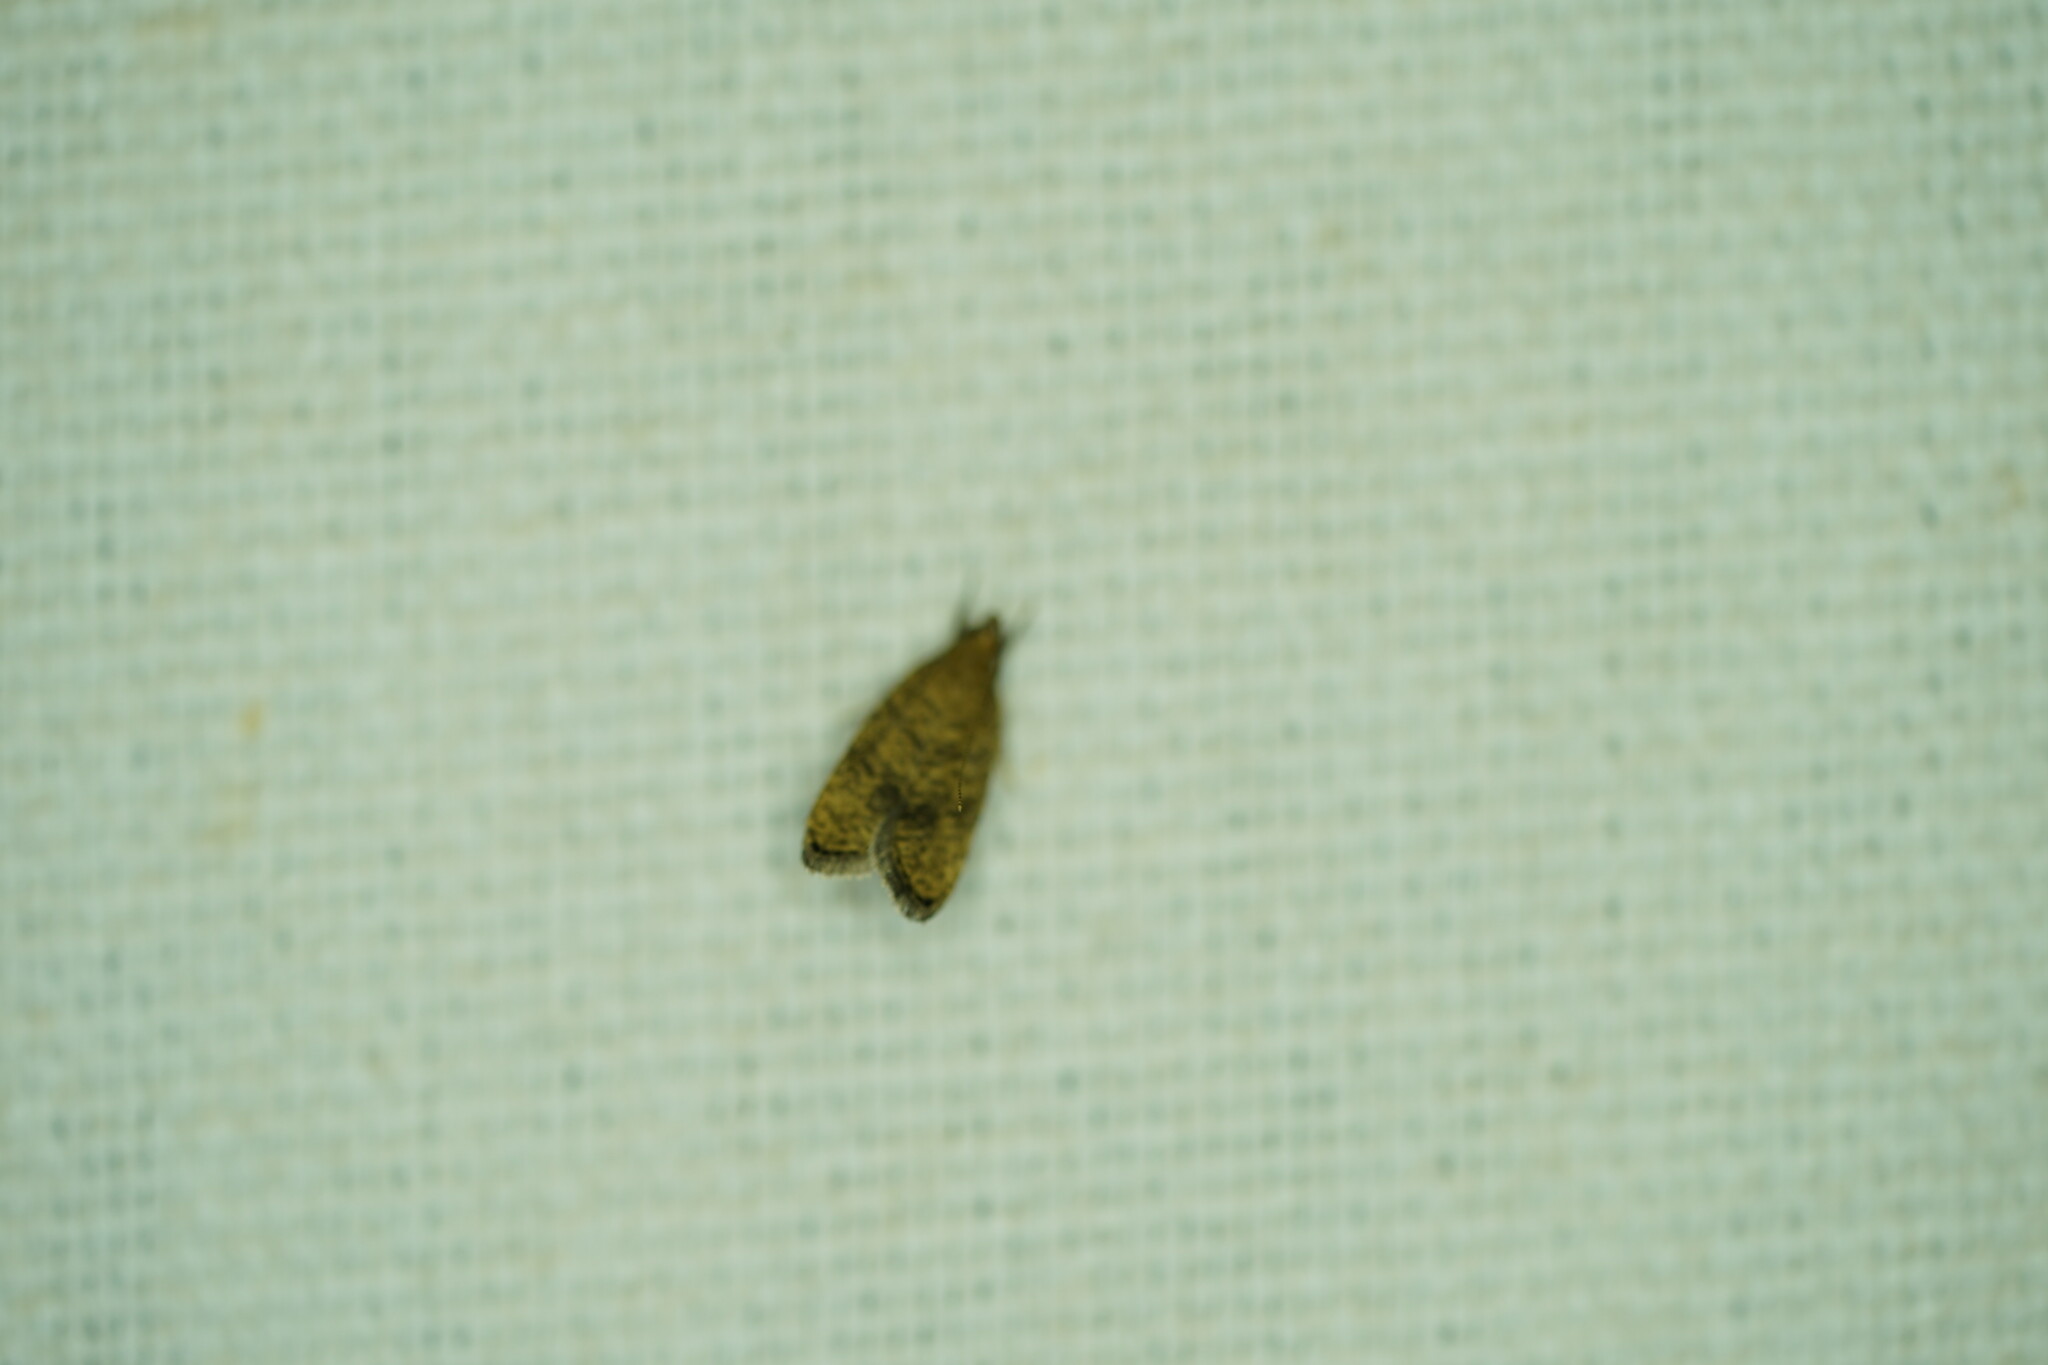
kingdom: Animalia
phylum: Arthropoda
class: Insecta
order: Lepidoptera
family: Depressariidae
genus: Psilocorsis
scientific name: Psilocorsis quercicella
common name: Oak leaftier moth
